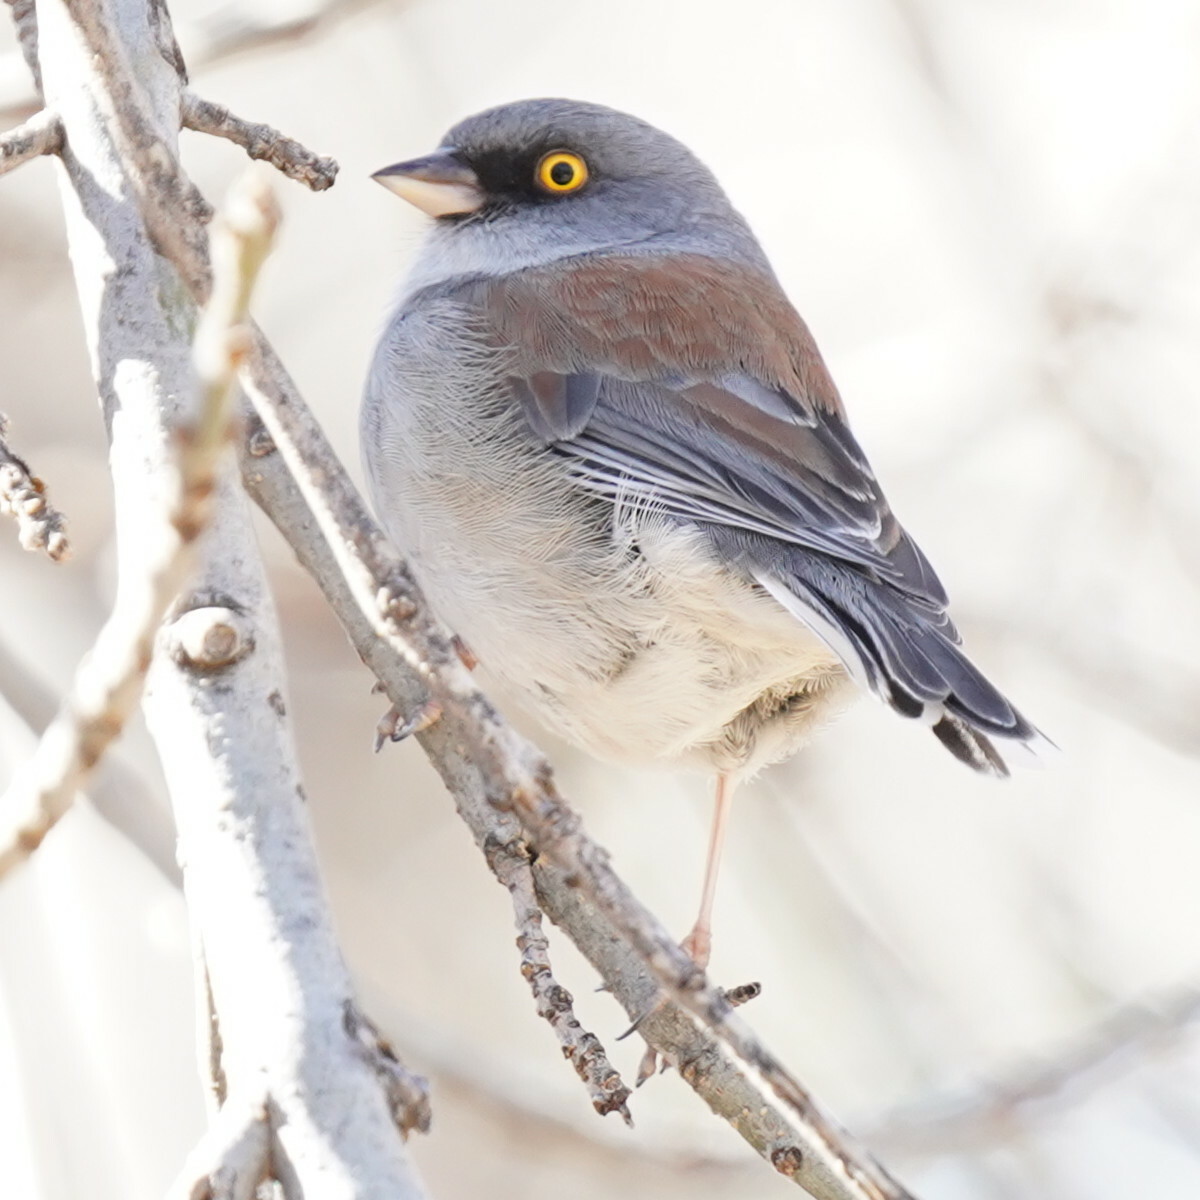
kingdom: Animalia
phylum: Chordata
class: Aves
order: Passeriformes
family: Passerellidae
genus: Junco
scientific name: Junco phaeonotus
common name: Yellow-eyed junco
